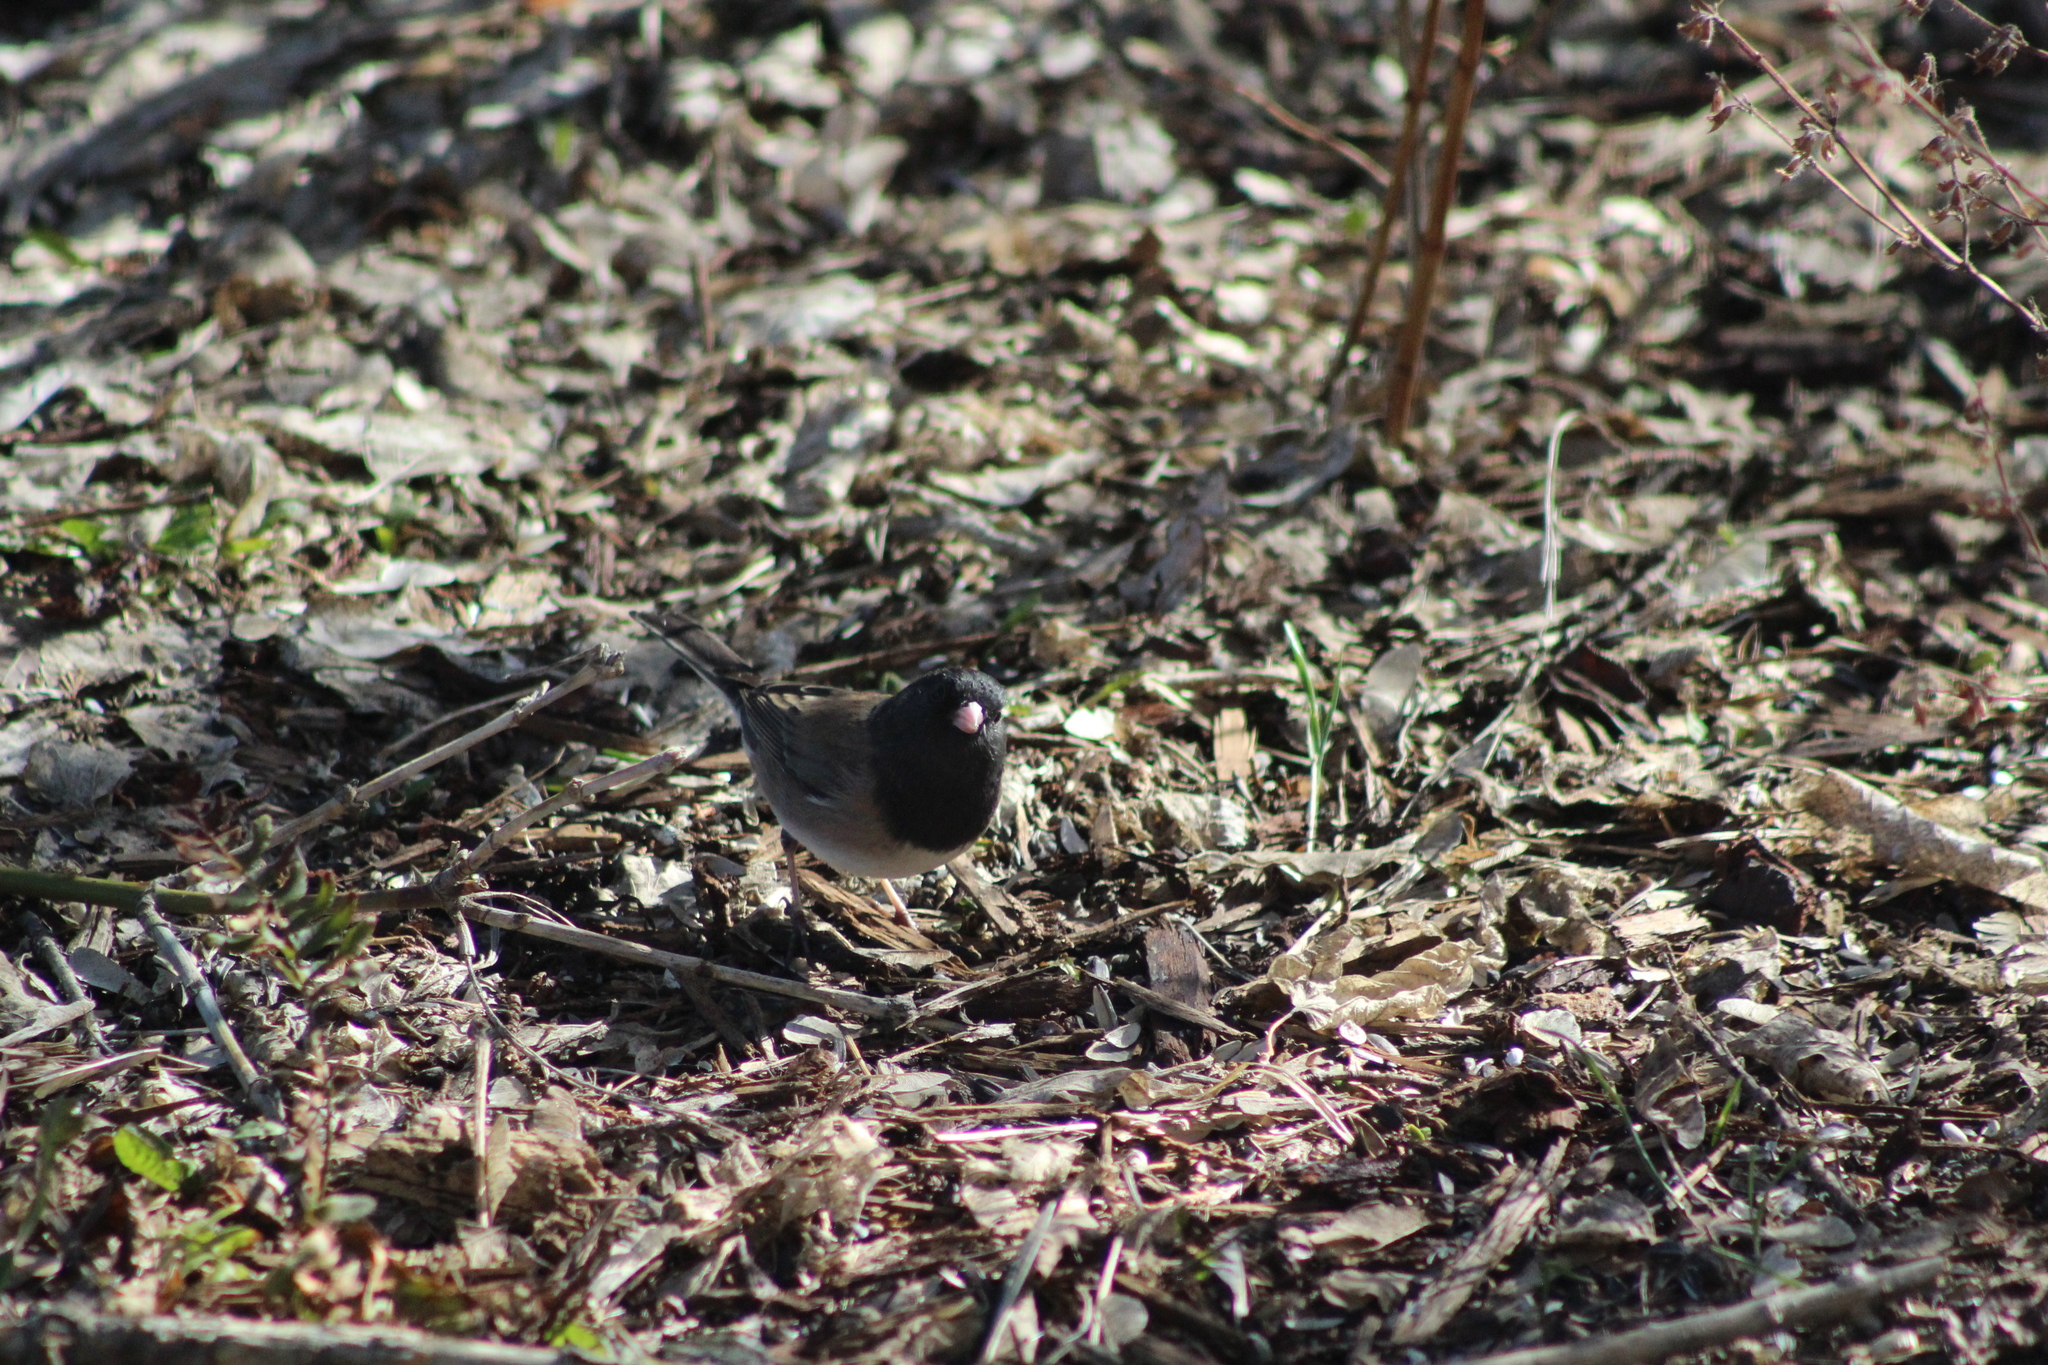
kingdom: Animalia
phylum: Chordata
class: Aves
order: Passeriformes
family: Passerellidae
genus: Junco
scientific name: Junco hyemalis
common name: Dark-eyed junco
